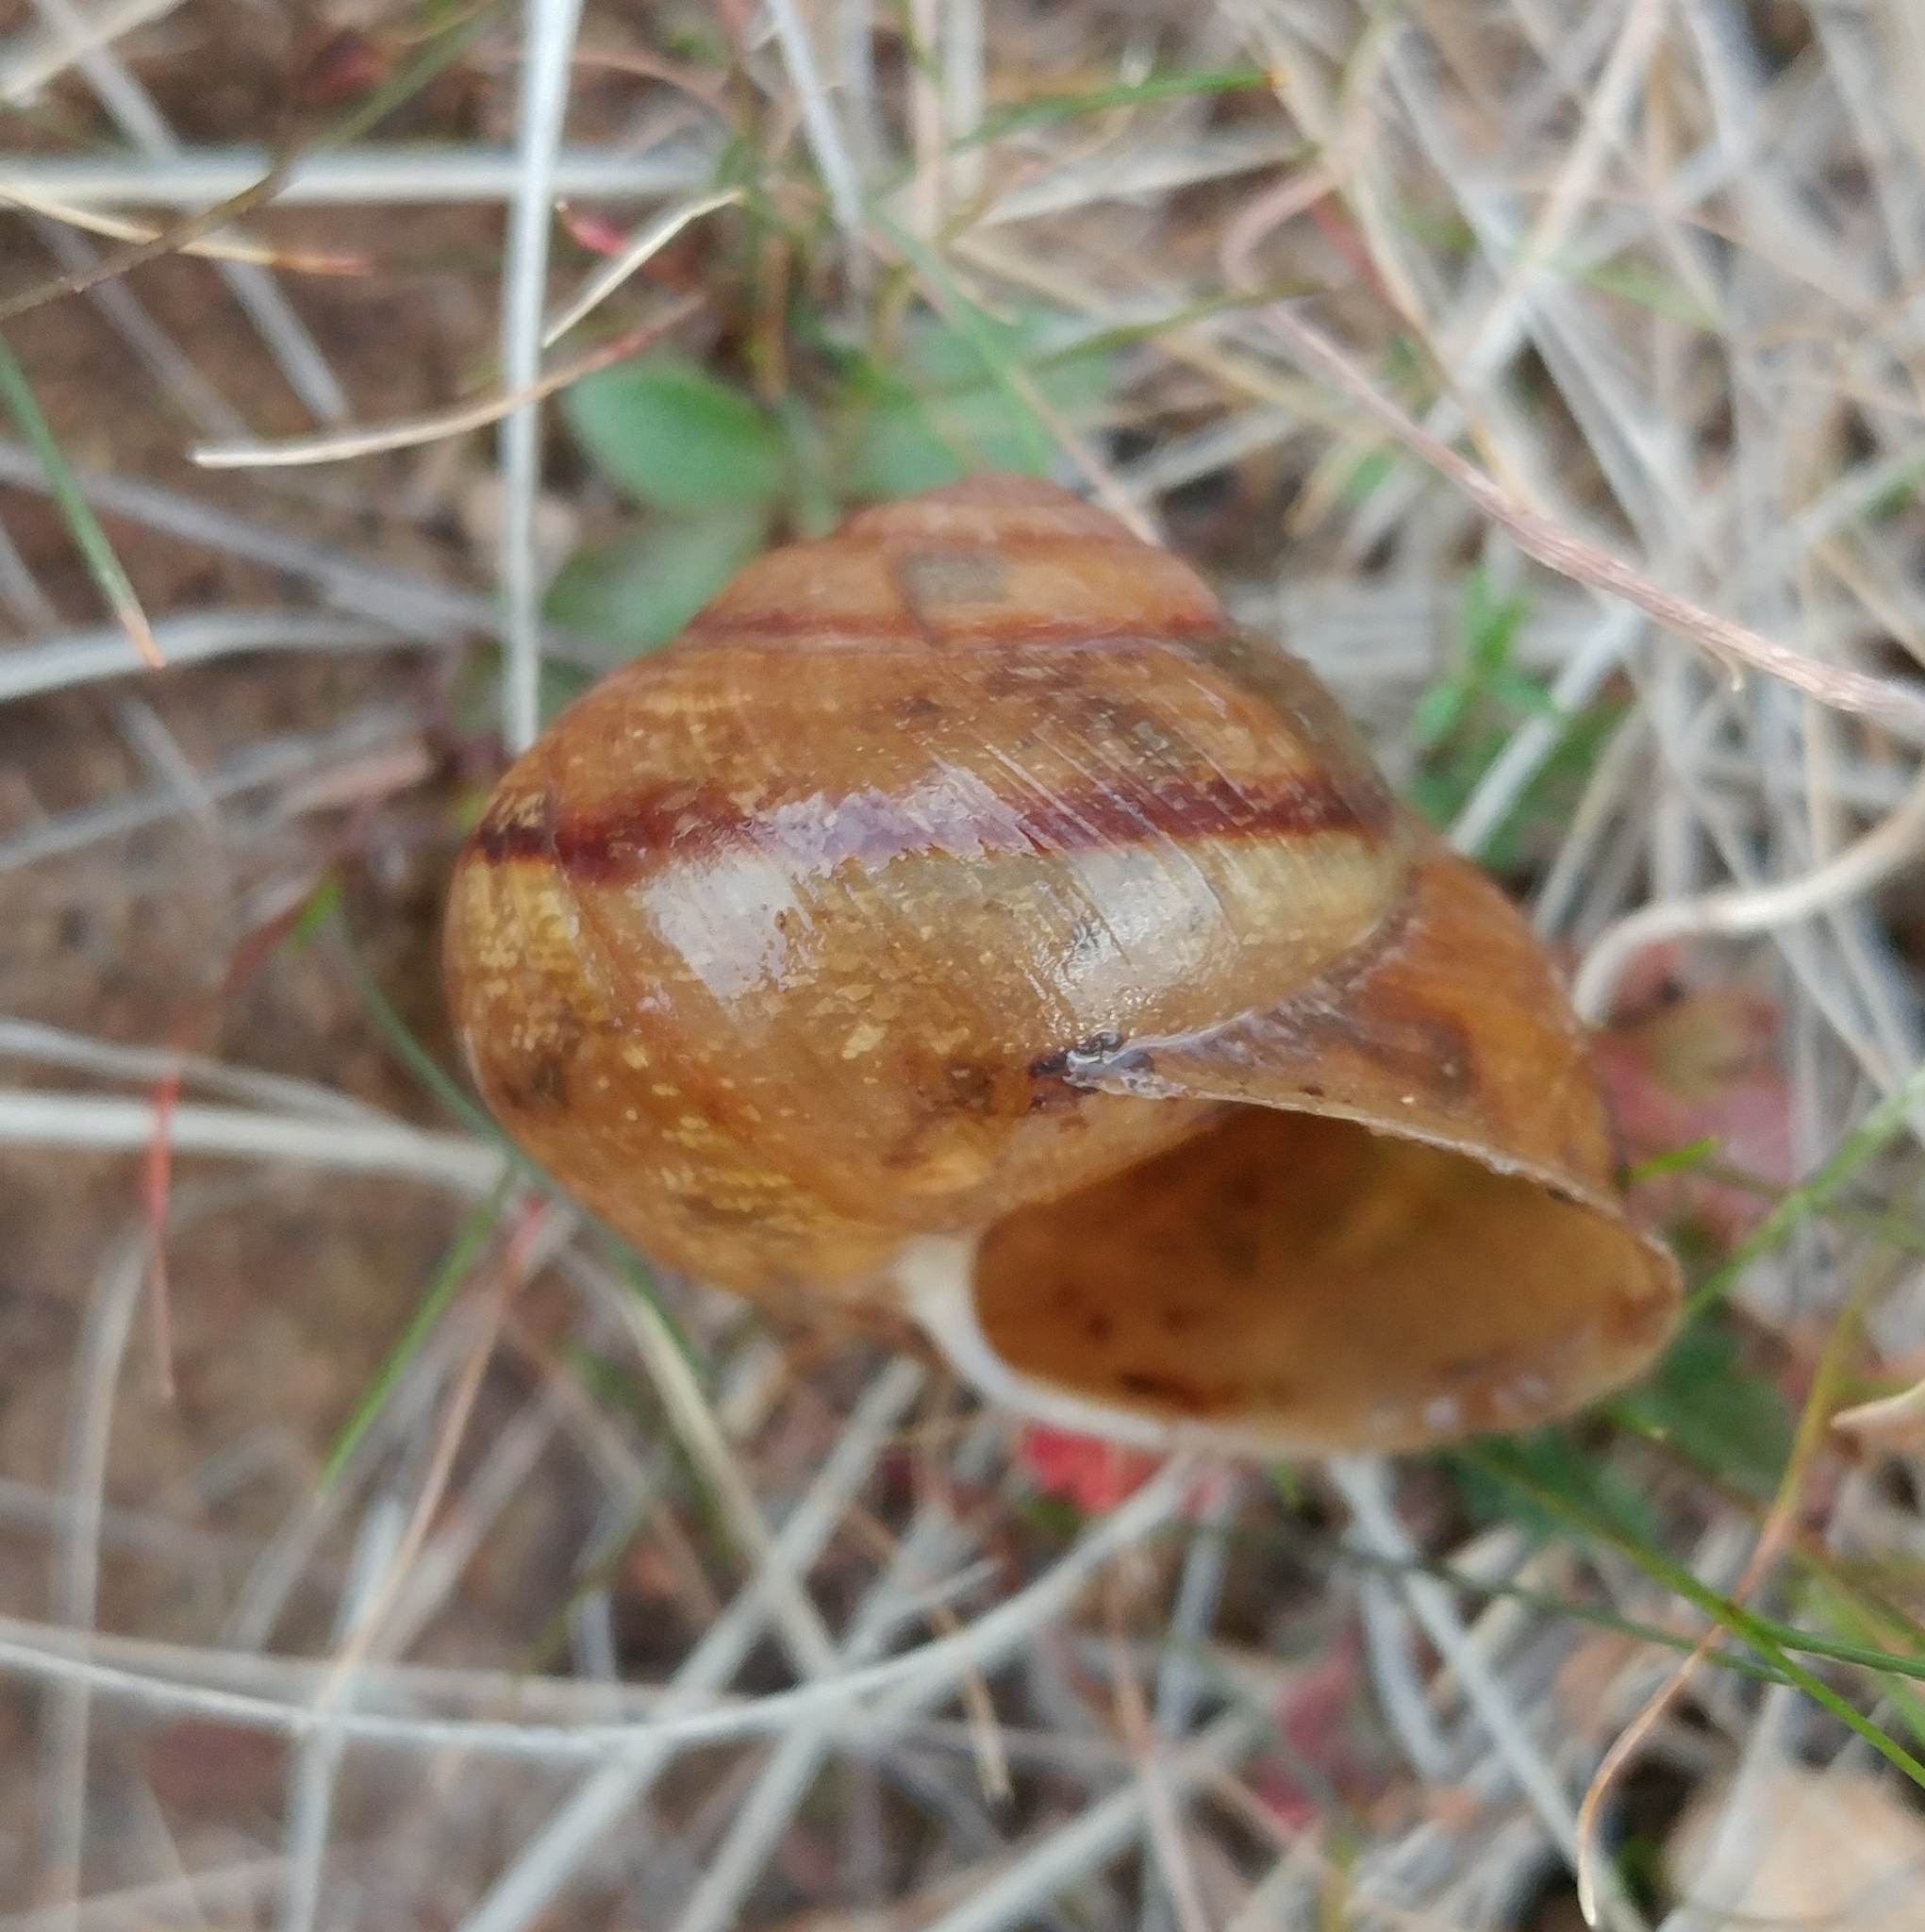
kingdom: Animalia
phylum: Mollusca
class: Gastropoda
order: Stylommatophora
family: Xanthonychidae
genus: Xerarionta
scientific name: Xerarionta stearnsiana
